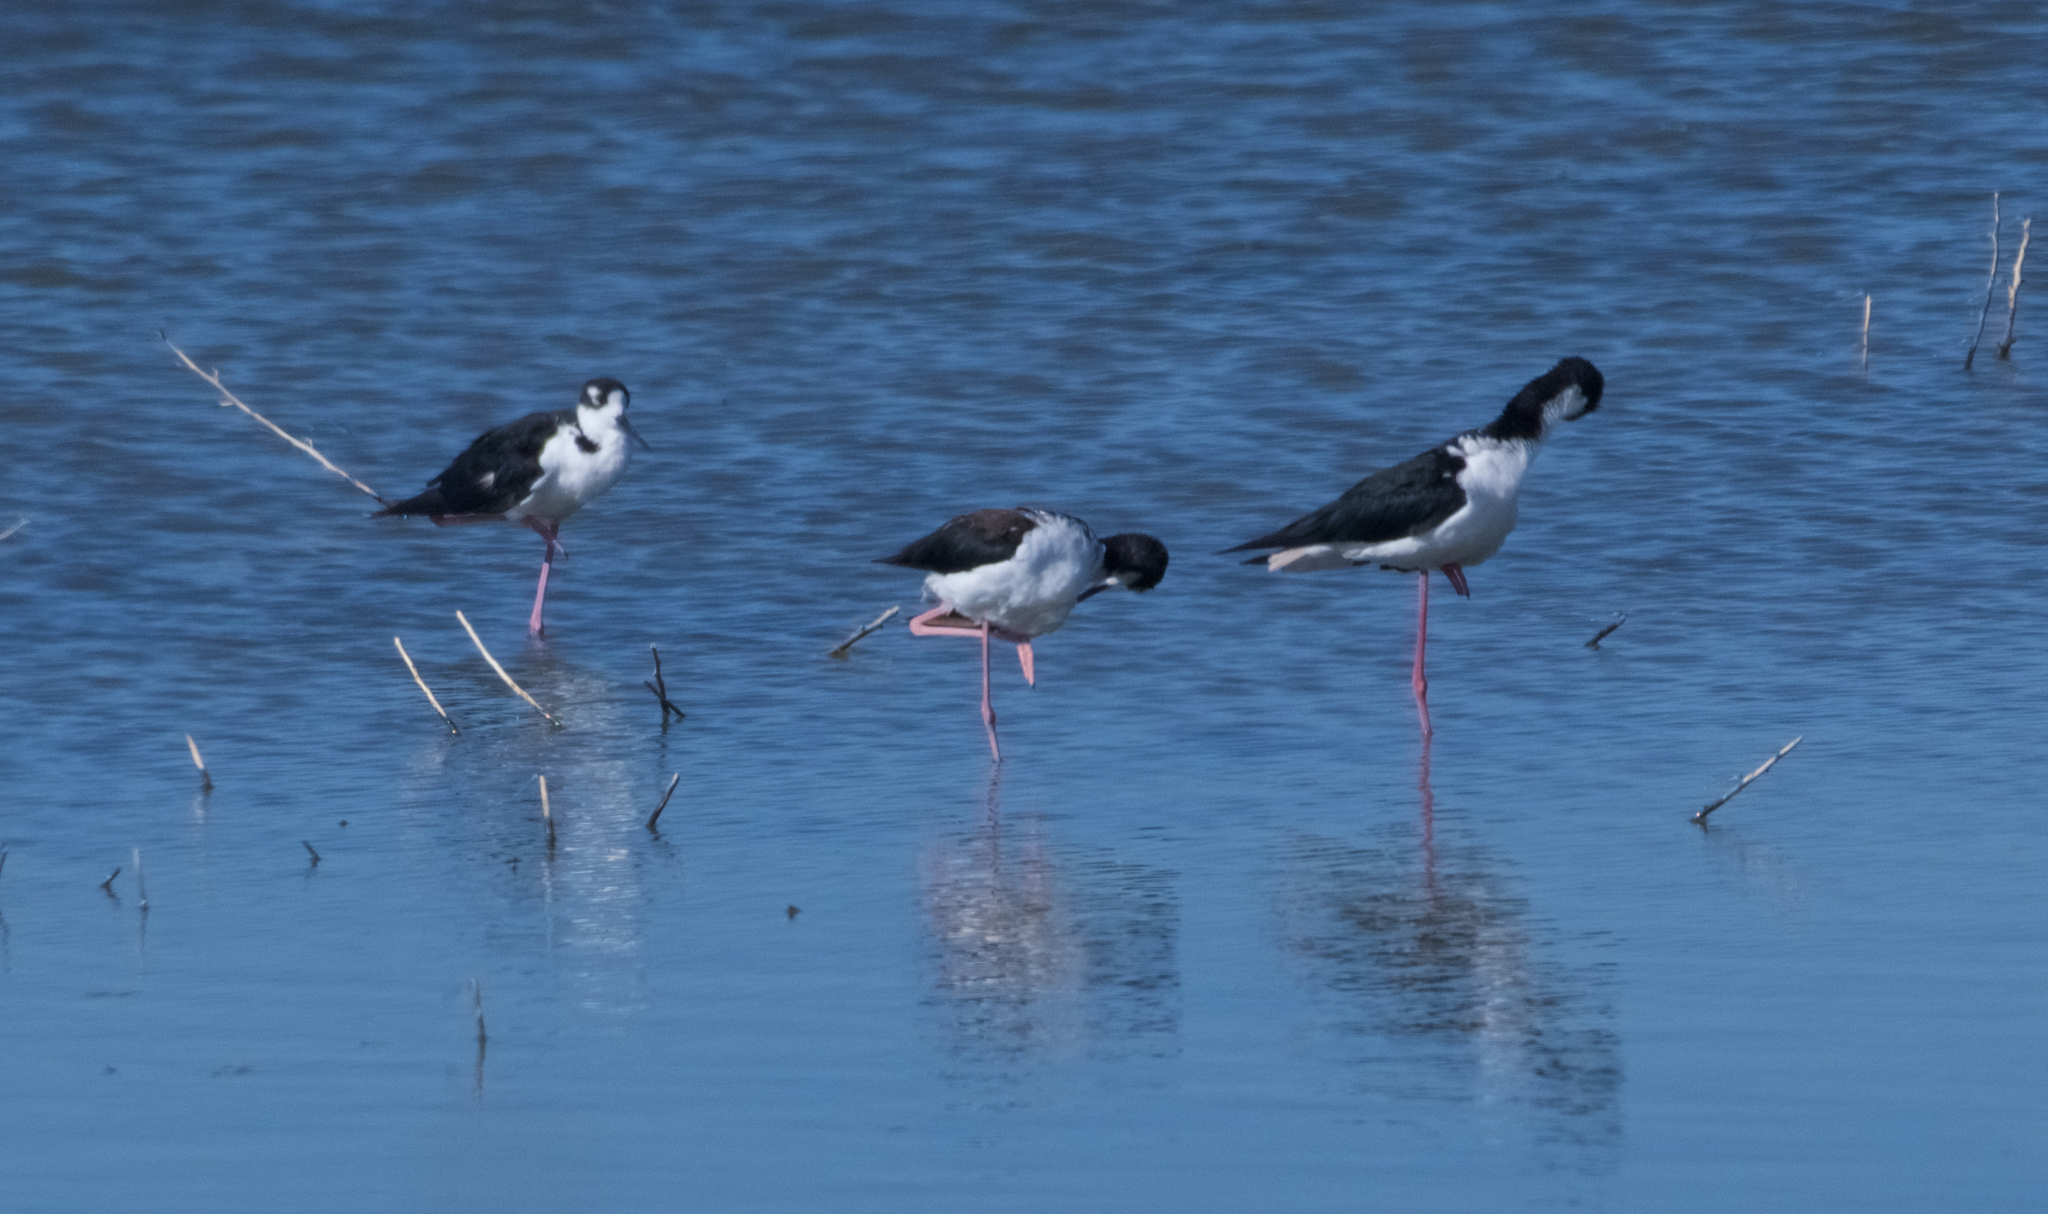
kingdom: Animalia
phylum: Chordata
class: Aves
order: Charadriiformes
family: Recurvirostridae
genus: Himantopus
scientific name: Himantopus mexicanus
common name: Black-necked stilt
